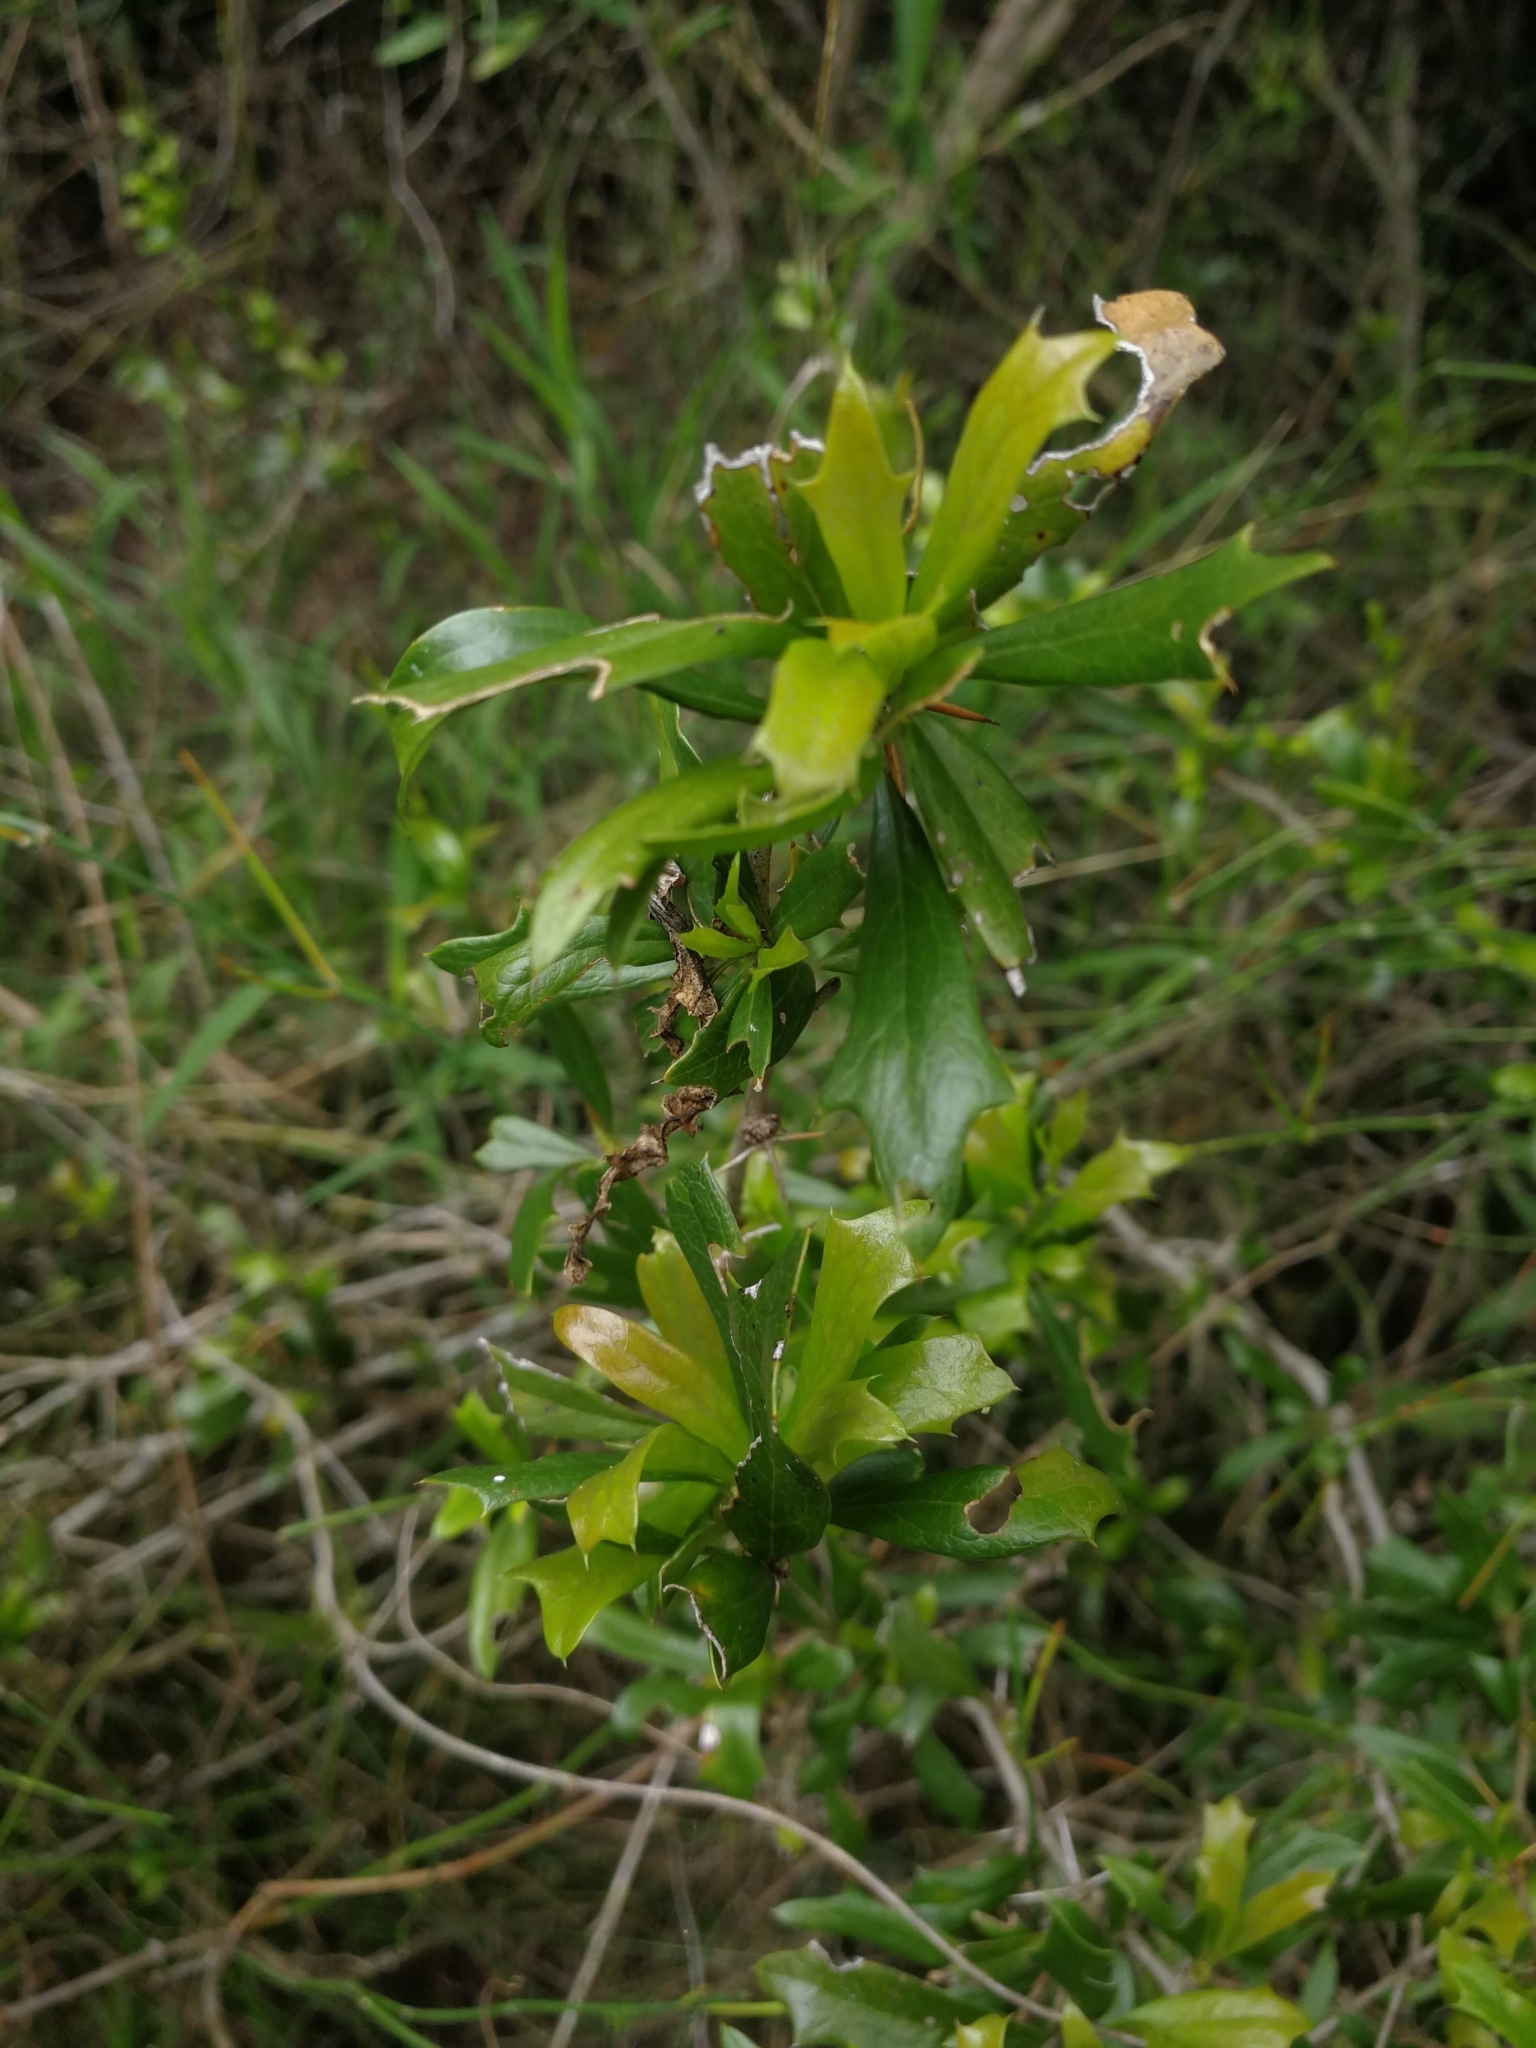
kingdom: Plantae
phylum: Tracheophyta
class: Magnoliopsida
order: Ranunculales
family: Berberidaceae
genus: Berberis
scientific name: Berberis ruscifolia
